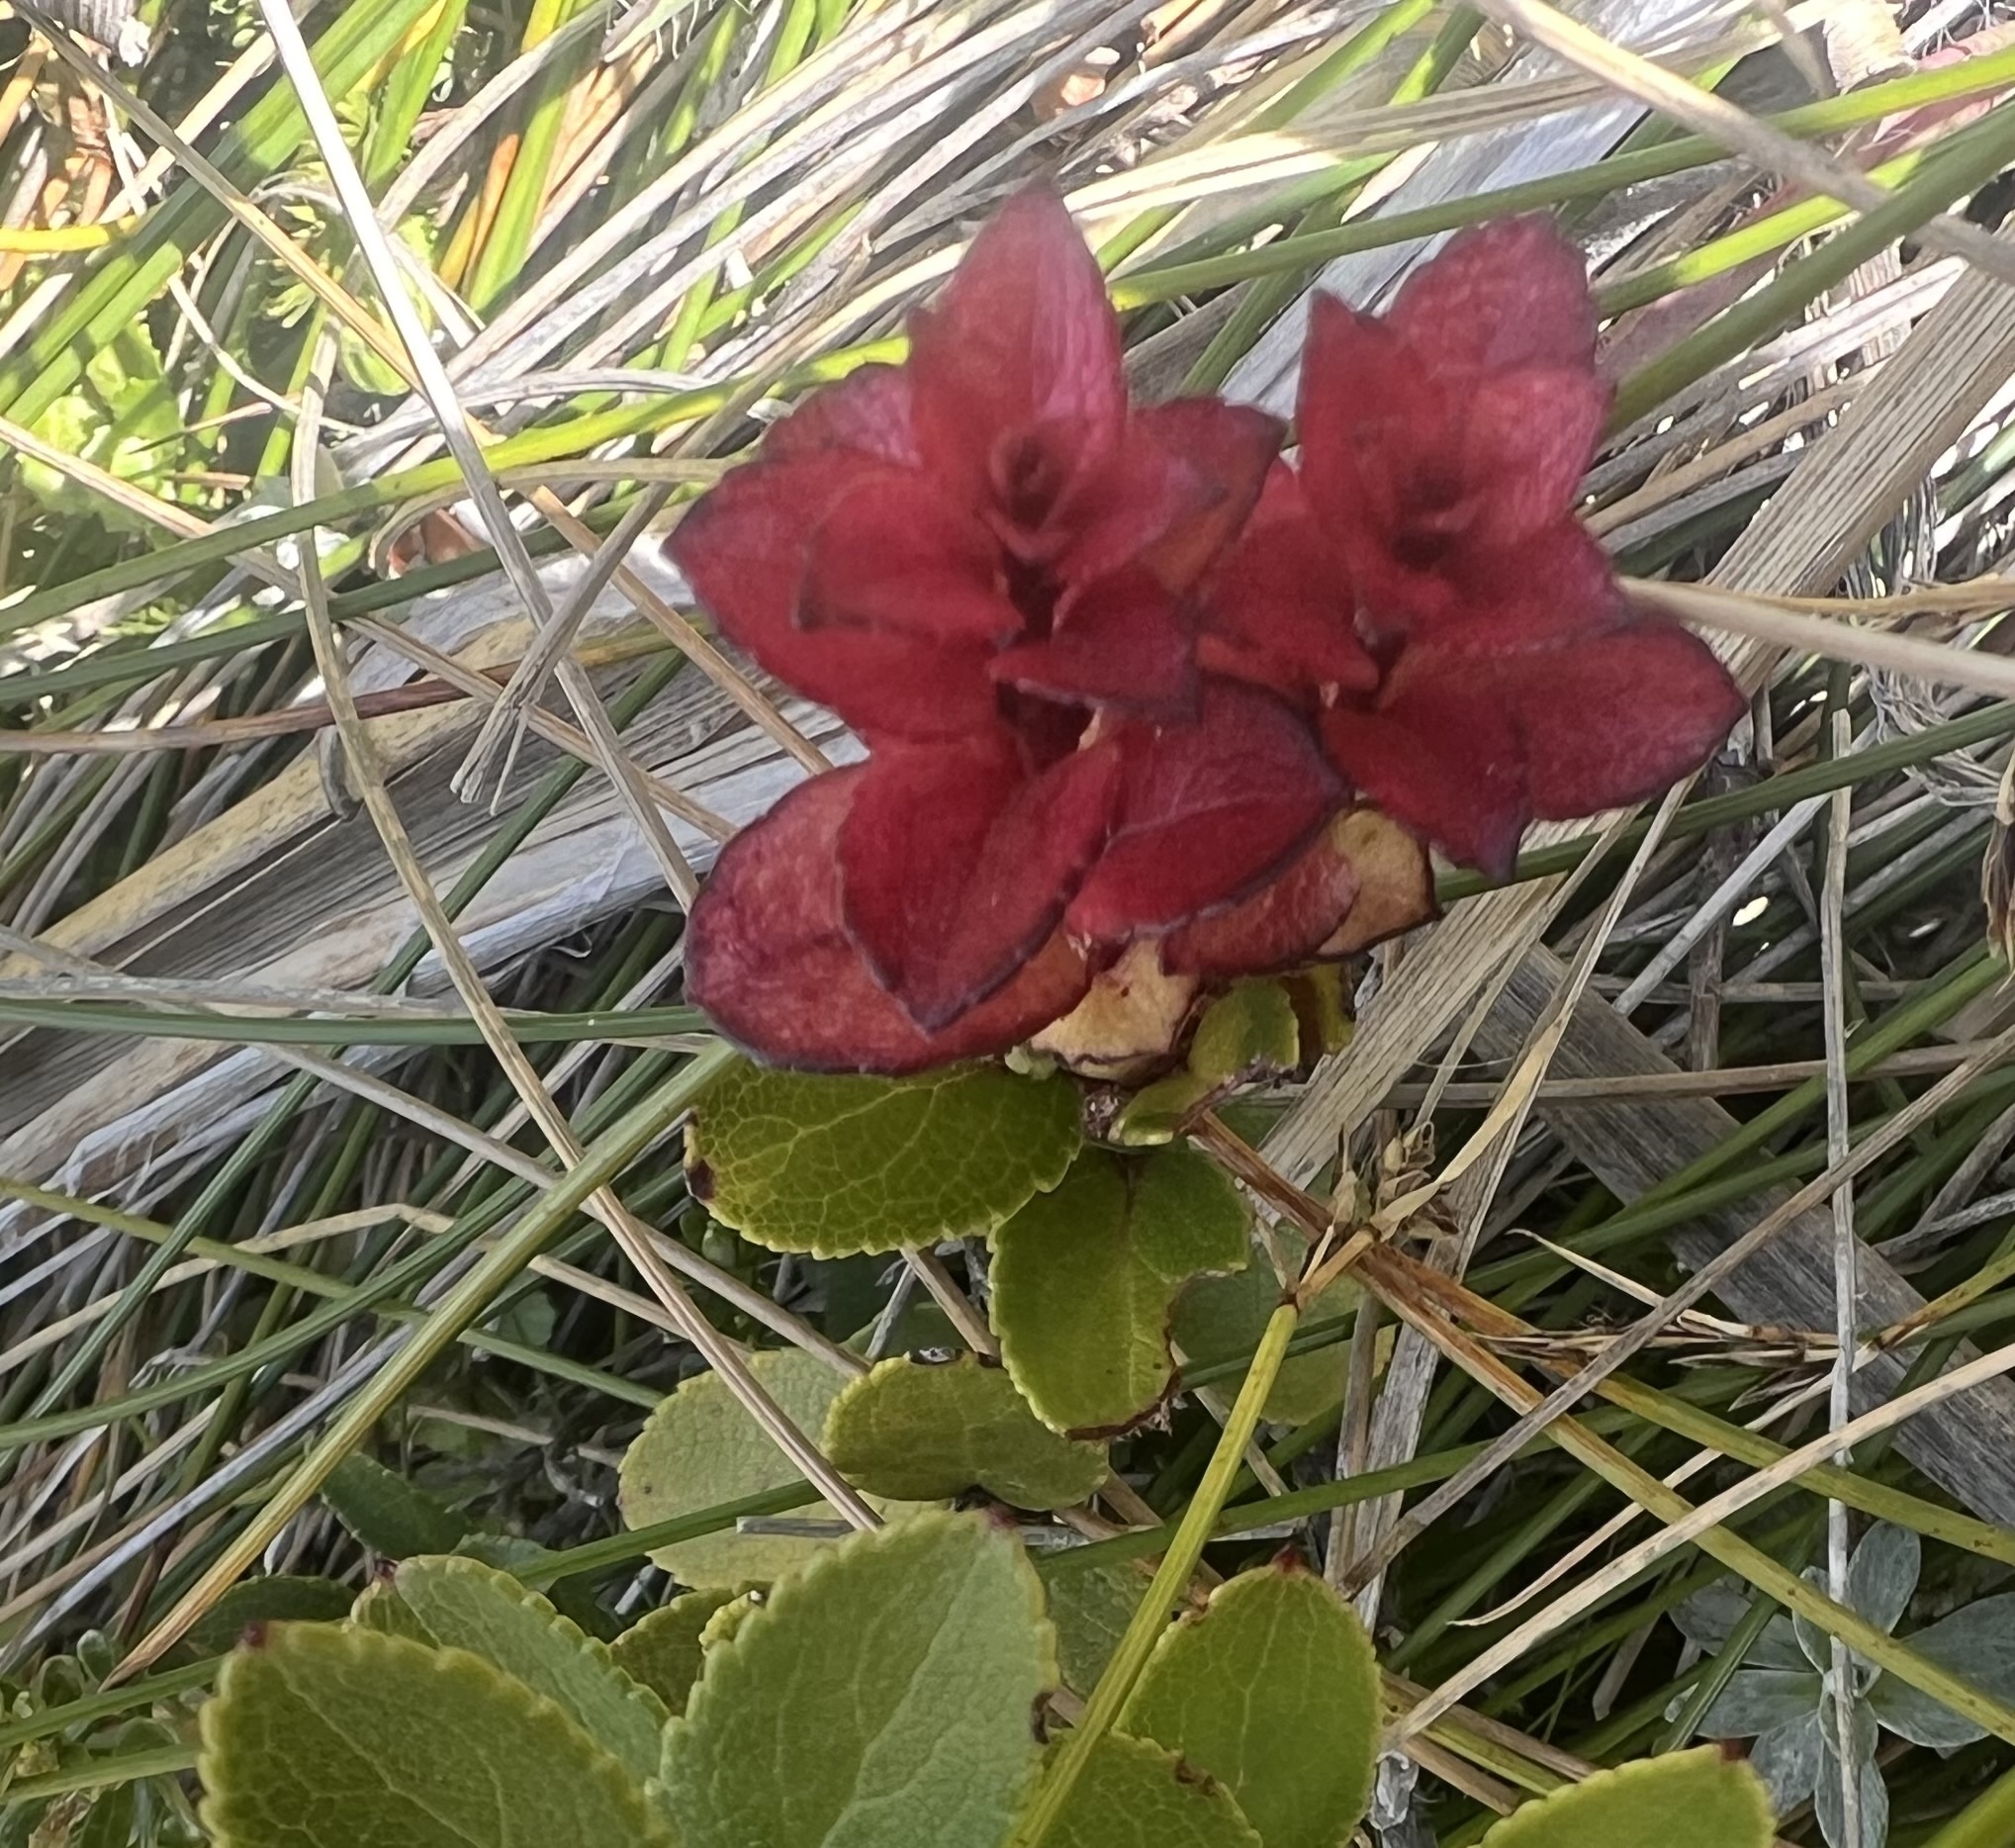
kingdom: Plantae
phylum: Tracheophyta
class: Magnoliopsida
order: Ericales
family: Ericaceae
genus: Gaultheria
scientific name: Gaultheria crassa
